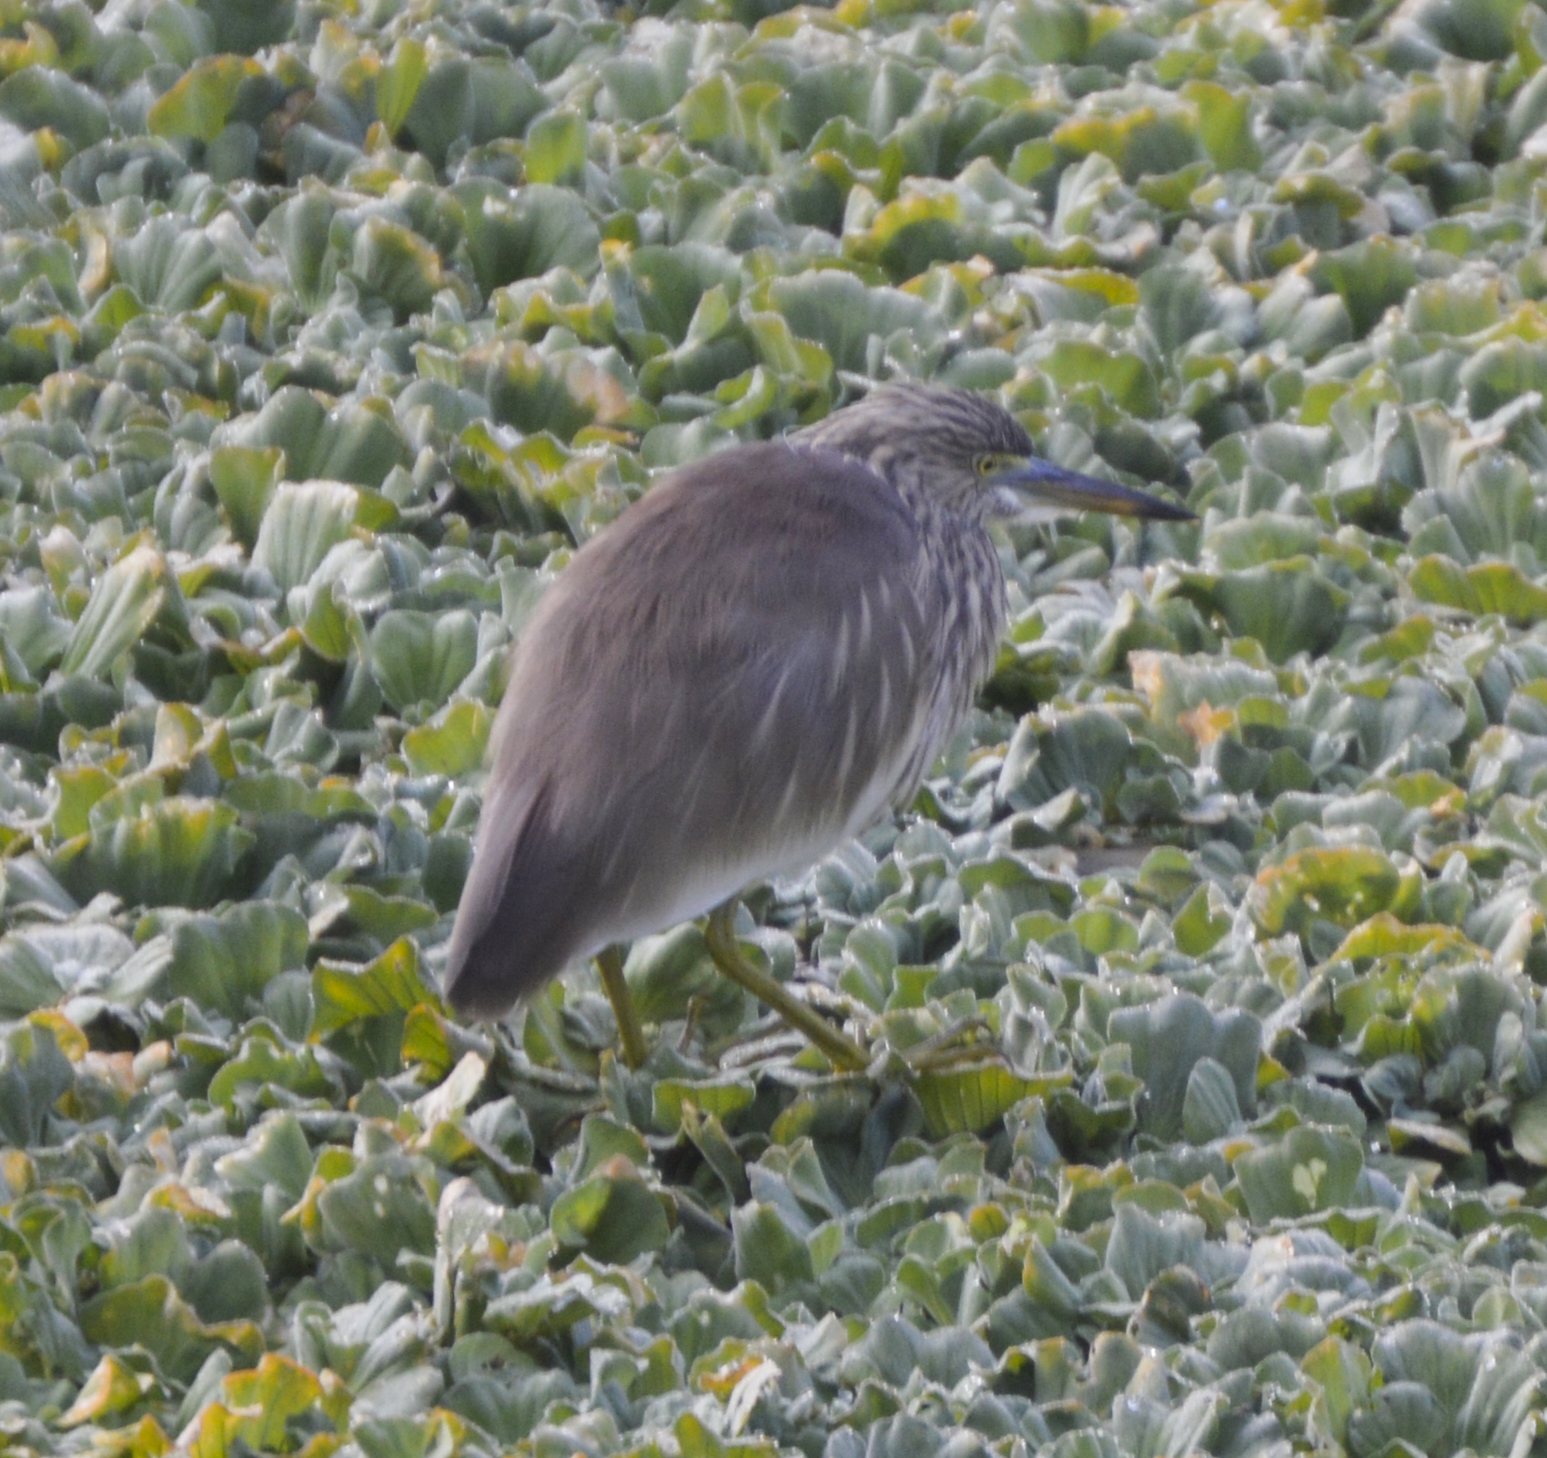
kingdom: Animalia
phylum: Chordata
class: Aves
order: Pelecaniformes
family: Ardeidae
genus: Ardeola
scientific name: Ardeola grayii
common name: Indian pond heron
